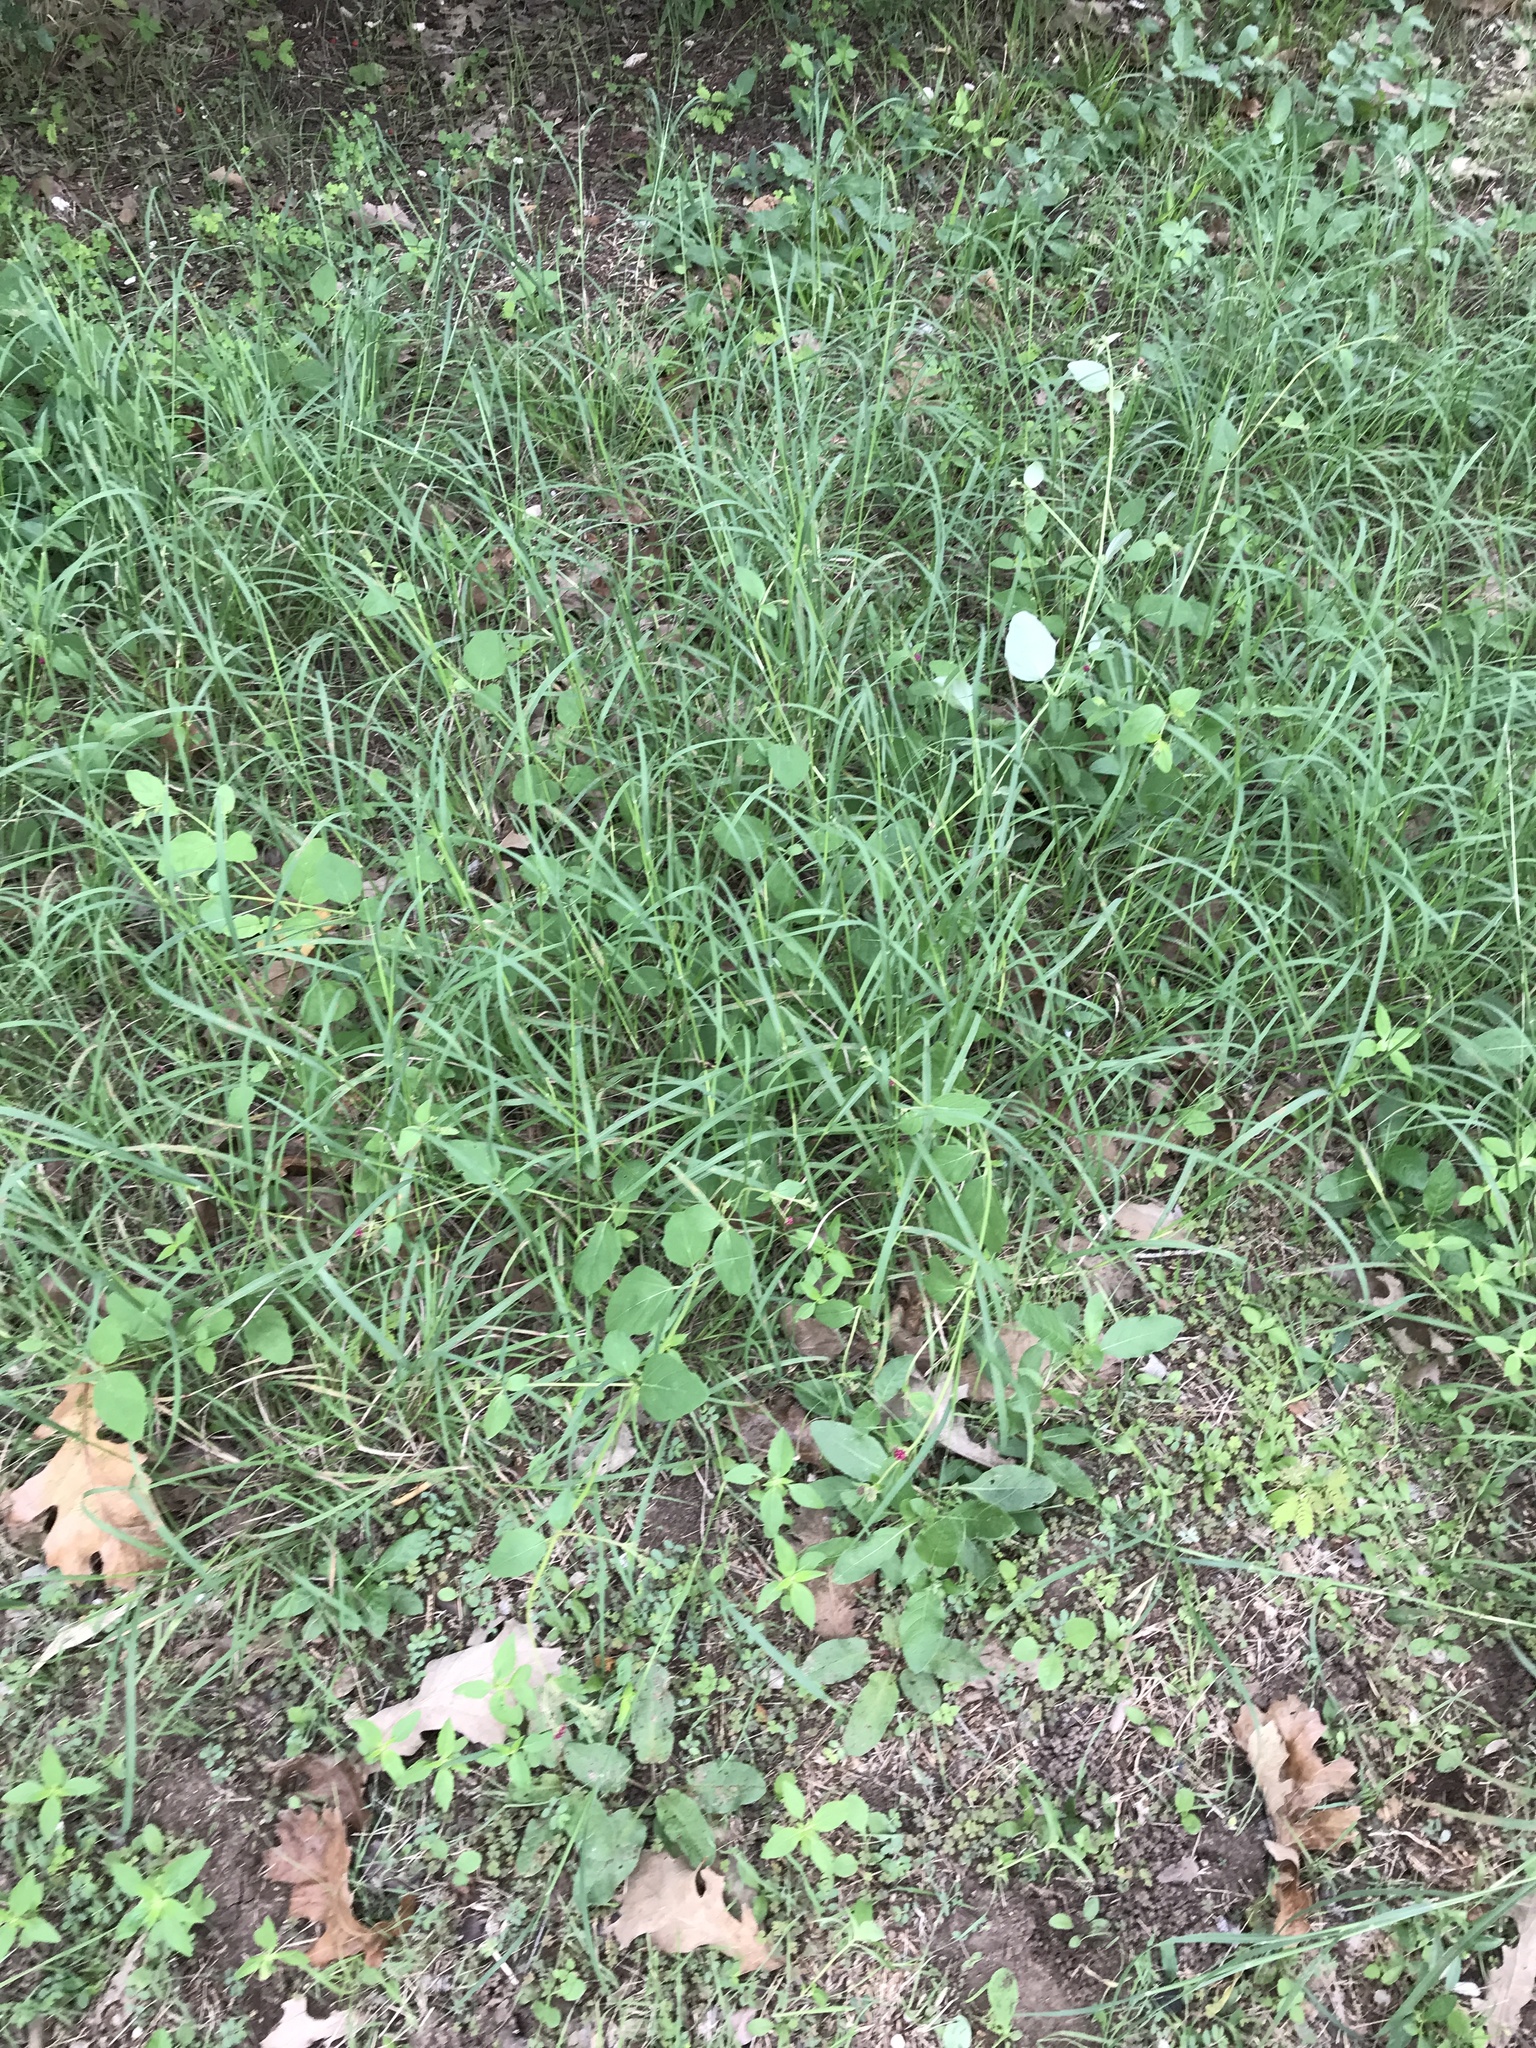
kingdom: Plantae
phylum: Tracheophyta
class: Magnoliopsida
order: Caryophyllales
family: Nyctaginaceae
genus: Boerhavia
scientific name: Boerhavia coccinea
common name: Scarlet spiderling
